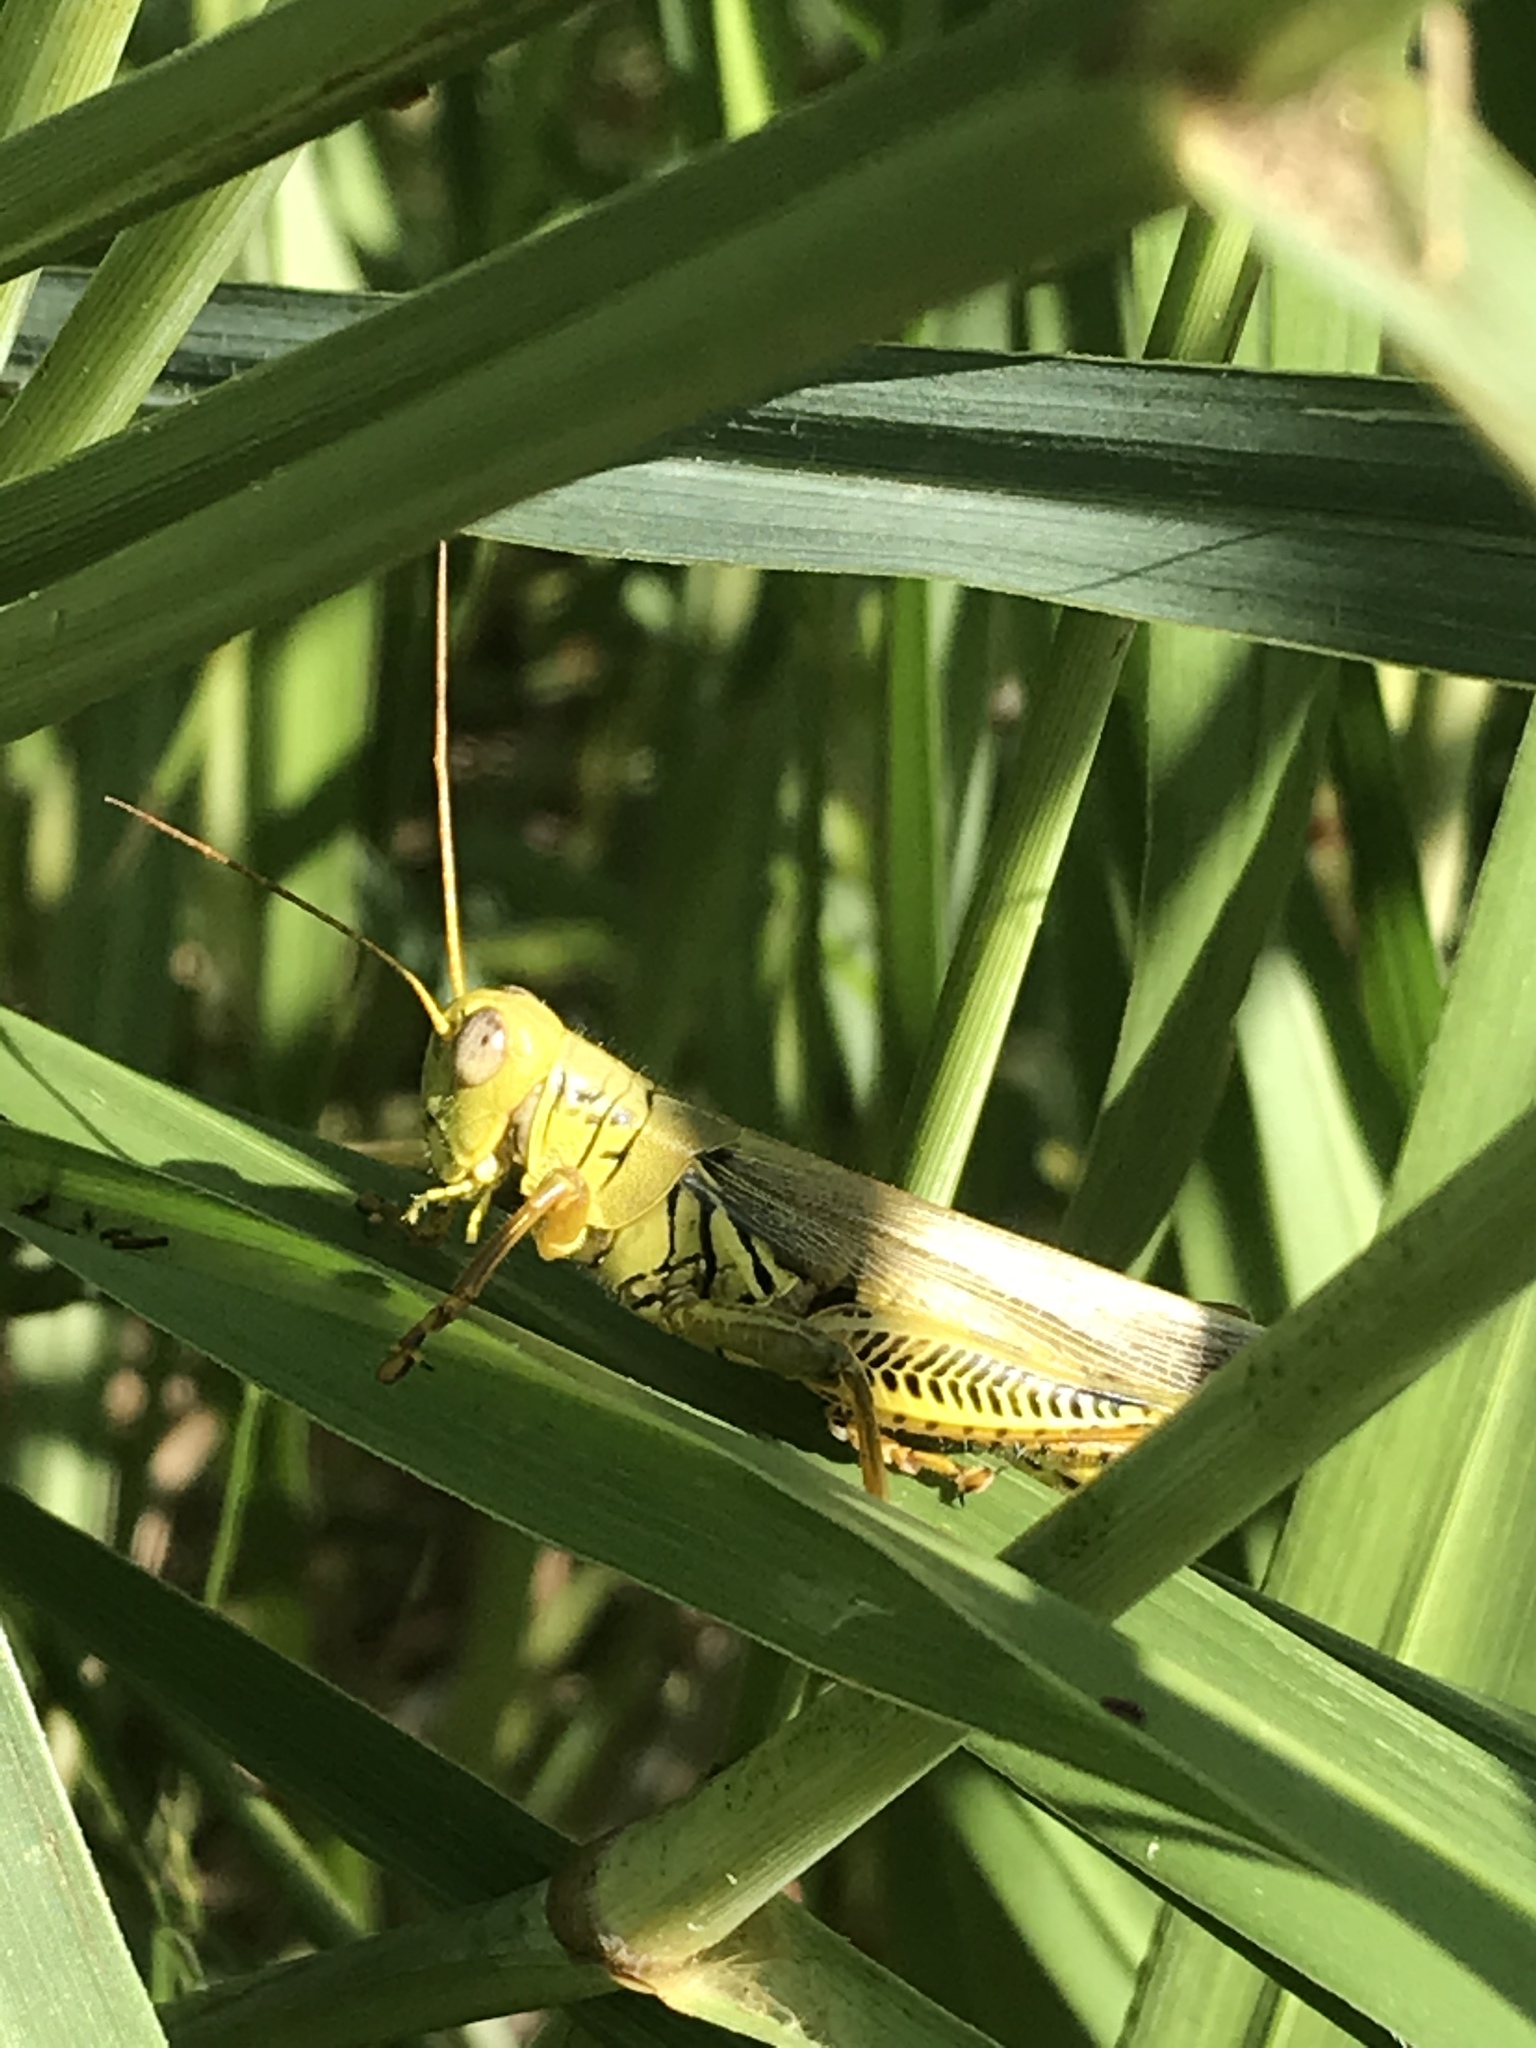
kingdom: Animalia
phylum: Arthropoda
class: Insecta
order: Orthoptera
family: Acrididae
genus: Melanoplus
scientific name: Melanoplus differentialis
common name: Differential grasshopper
